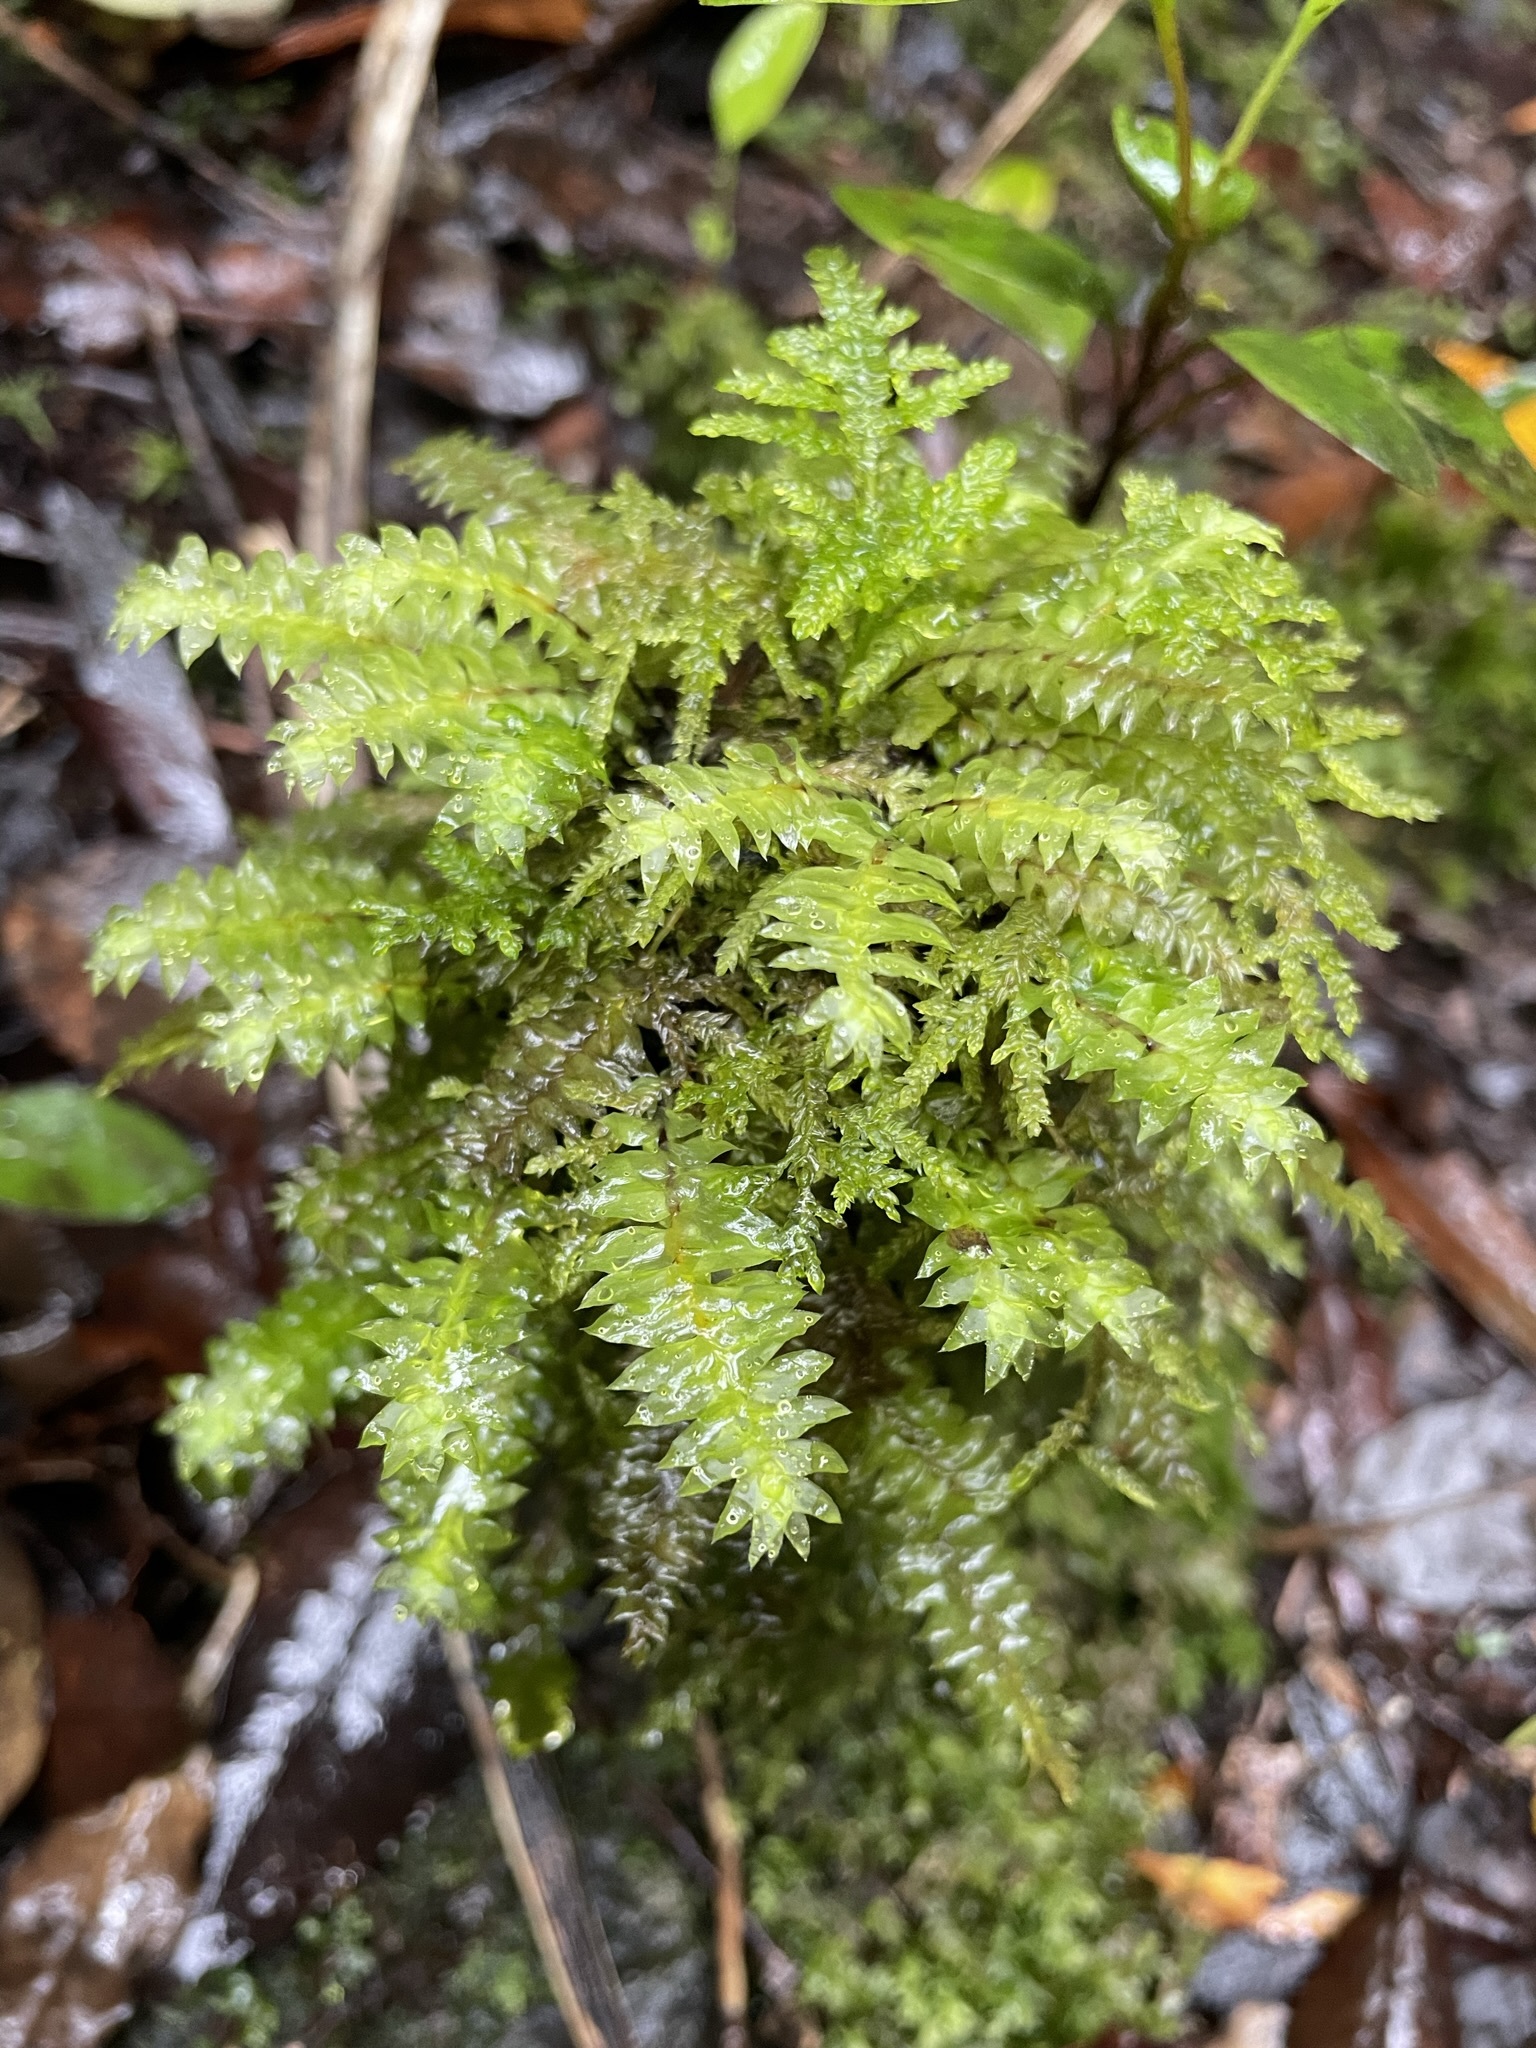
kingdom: Plantae
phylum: Bryophyta
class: Bryopsida
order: Hypopterygiales
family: Hypopterygiaceae
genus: Cyathophorum
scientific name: Cyathophorum bulbosum
